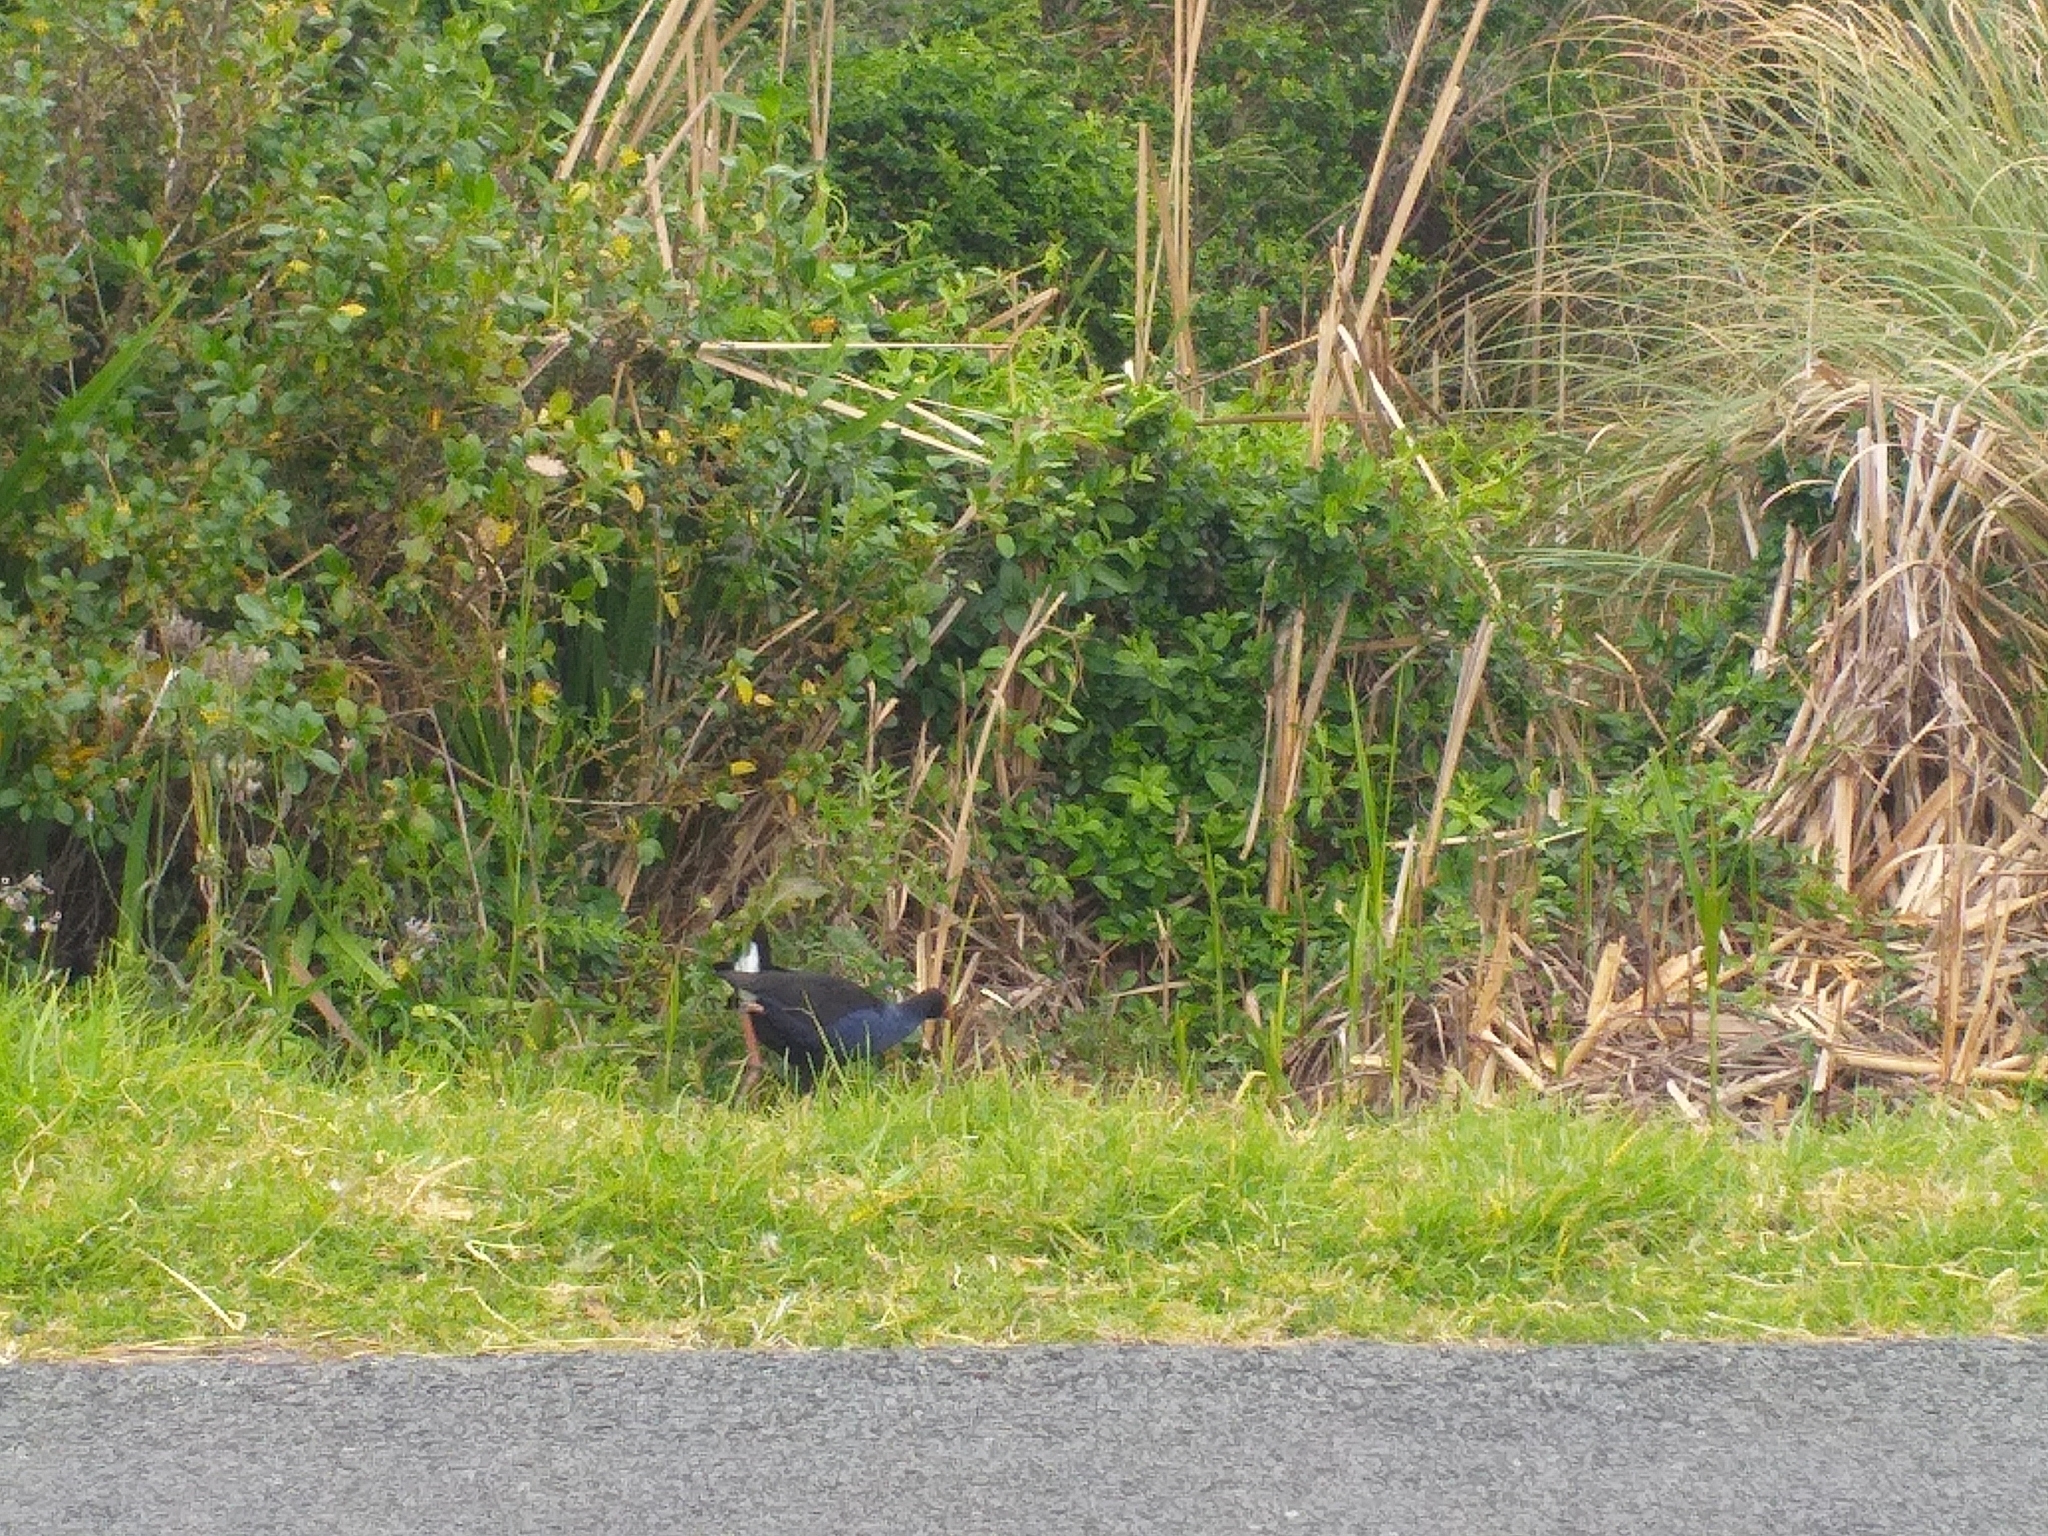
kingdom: Animalia
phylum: Chordata
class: Aves
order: Gruiformes
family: Rallidae
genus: Porphyrio
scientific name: Porphyrio melanotus
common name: Australasian swamphen
